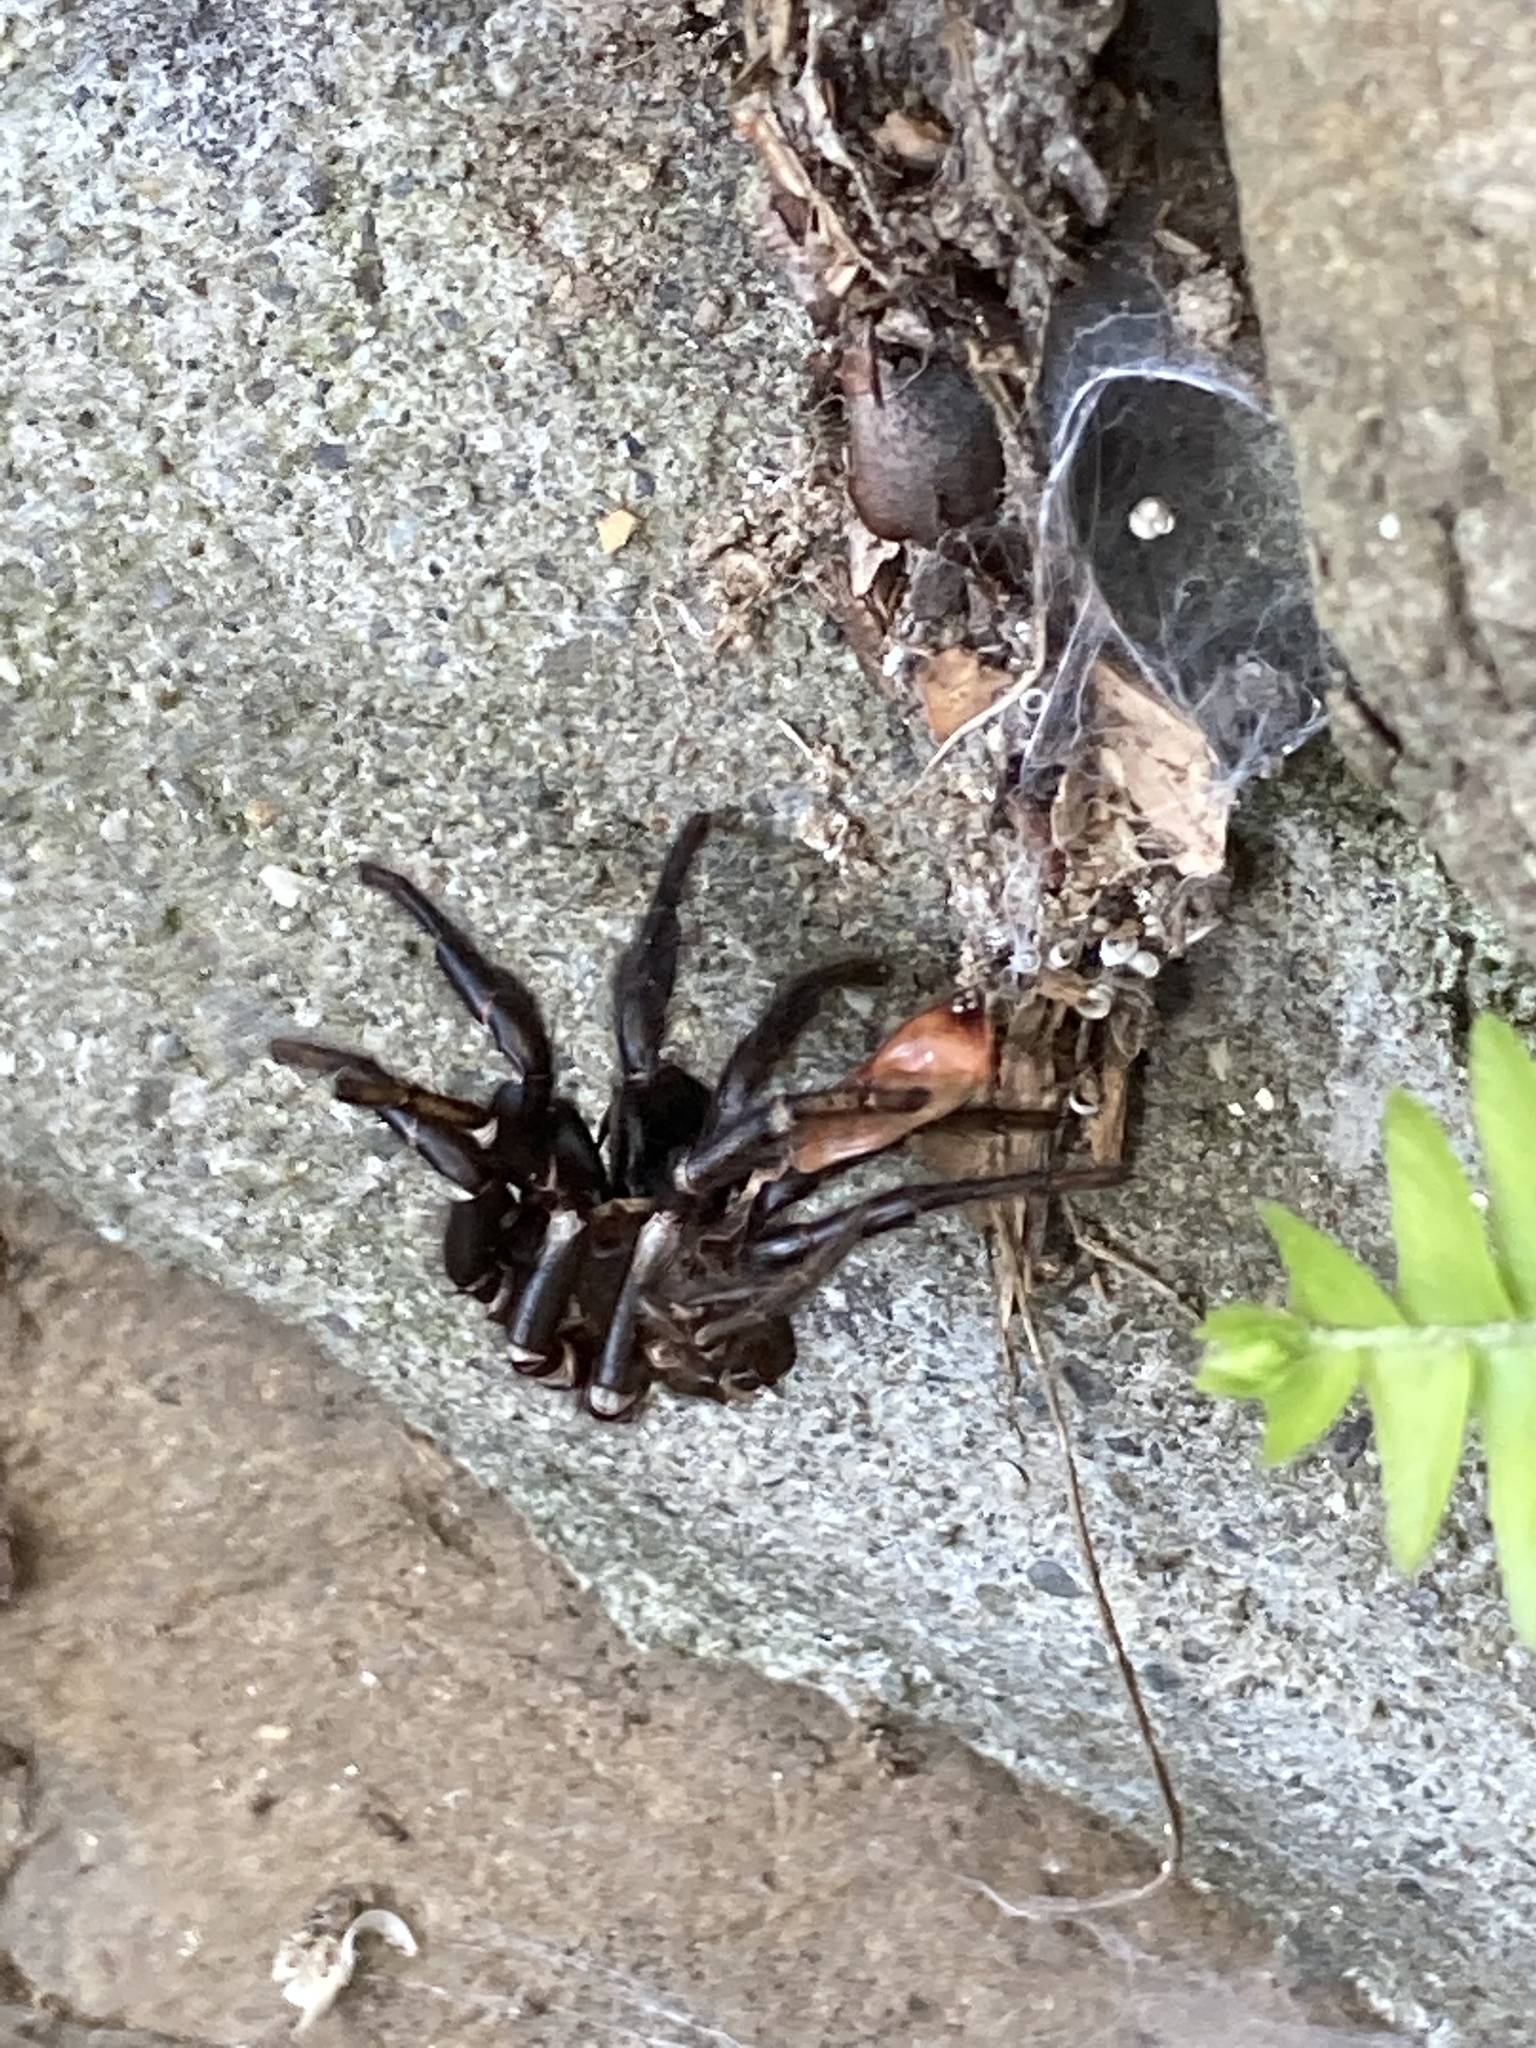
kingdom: Animalia
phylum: Arthropoda
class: Arachnida
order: Araneae
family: Porrhothelidae
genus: Porrhothele
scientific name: Porrhothele antipodiana
